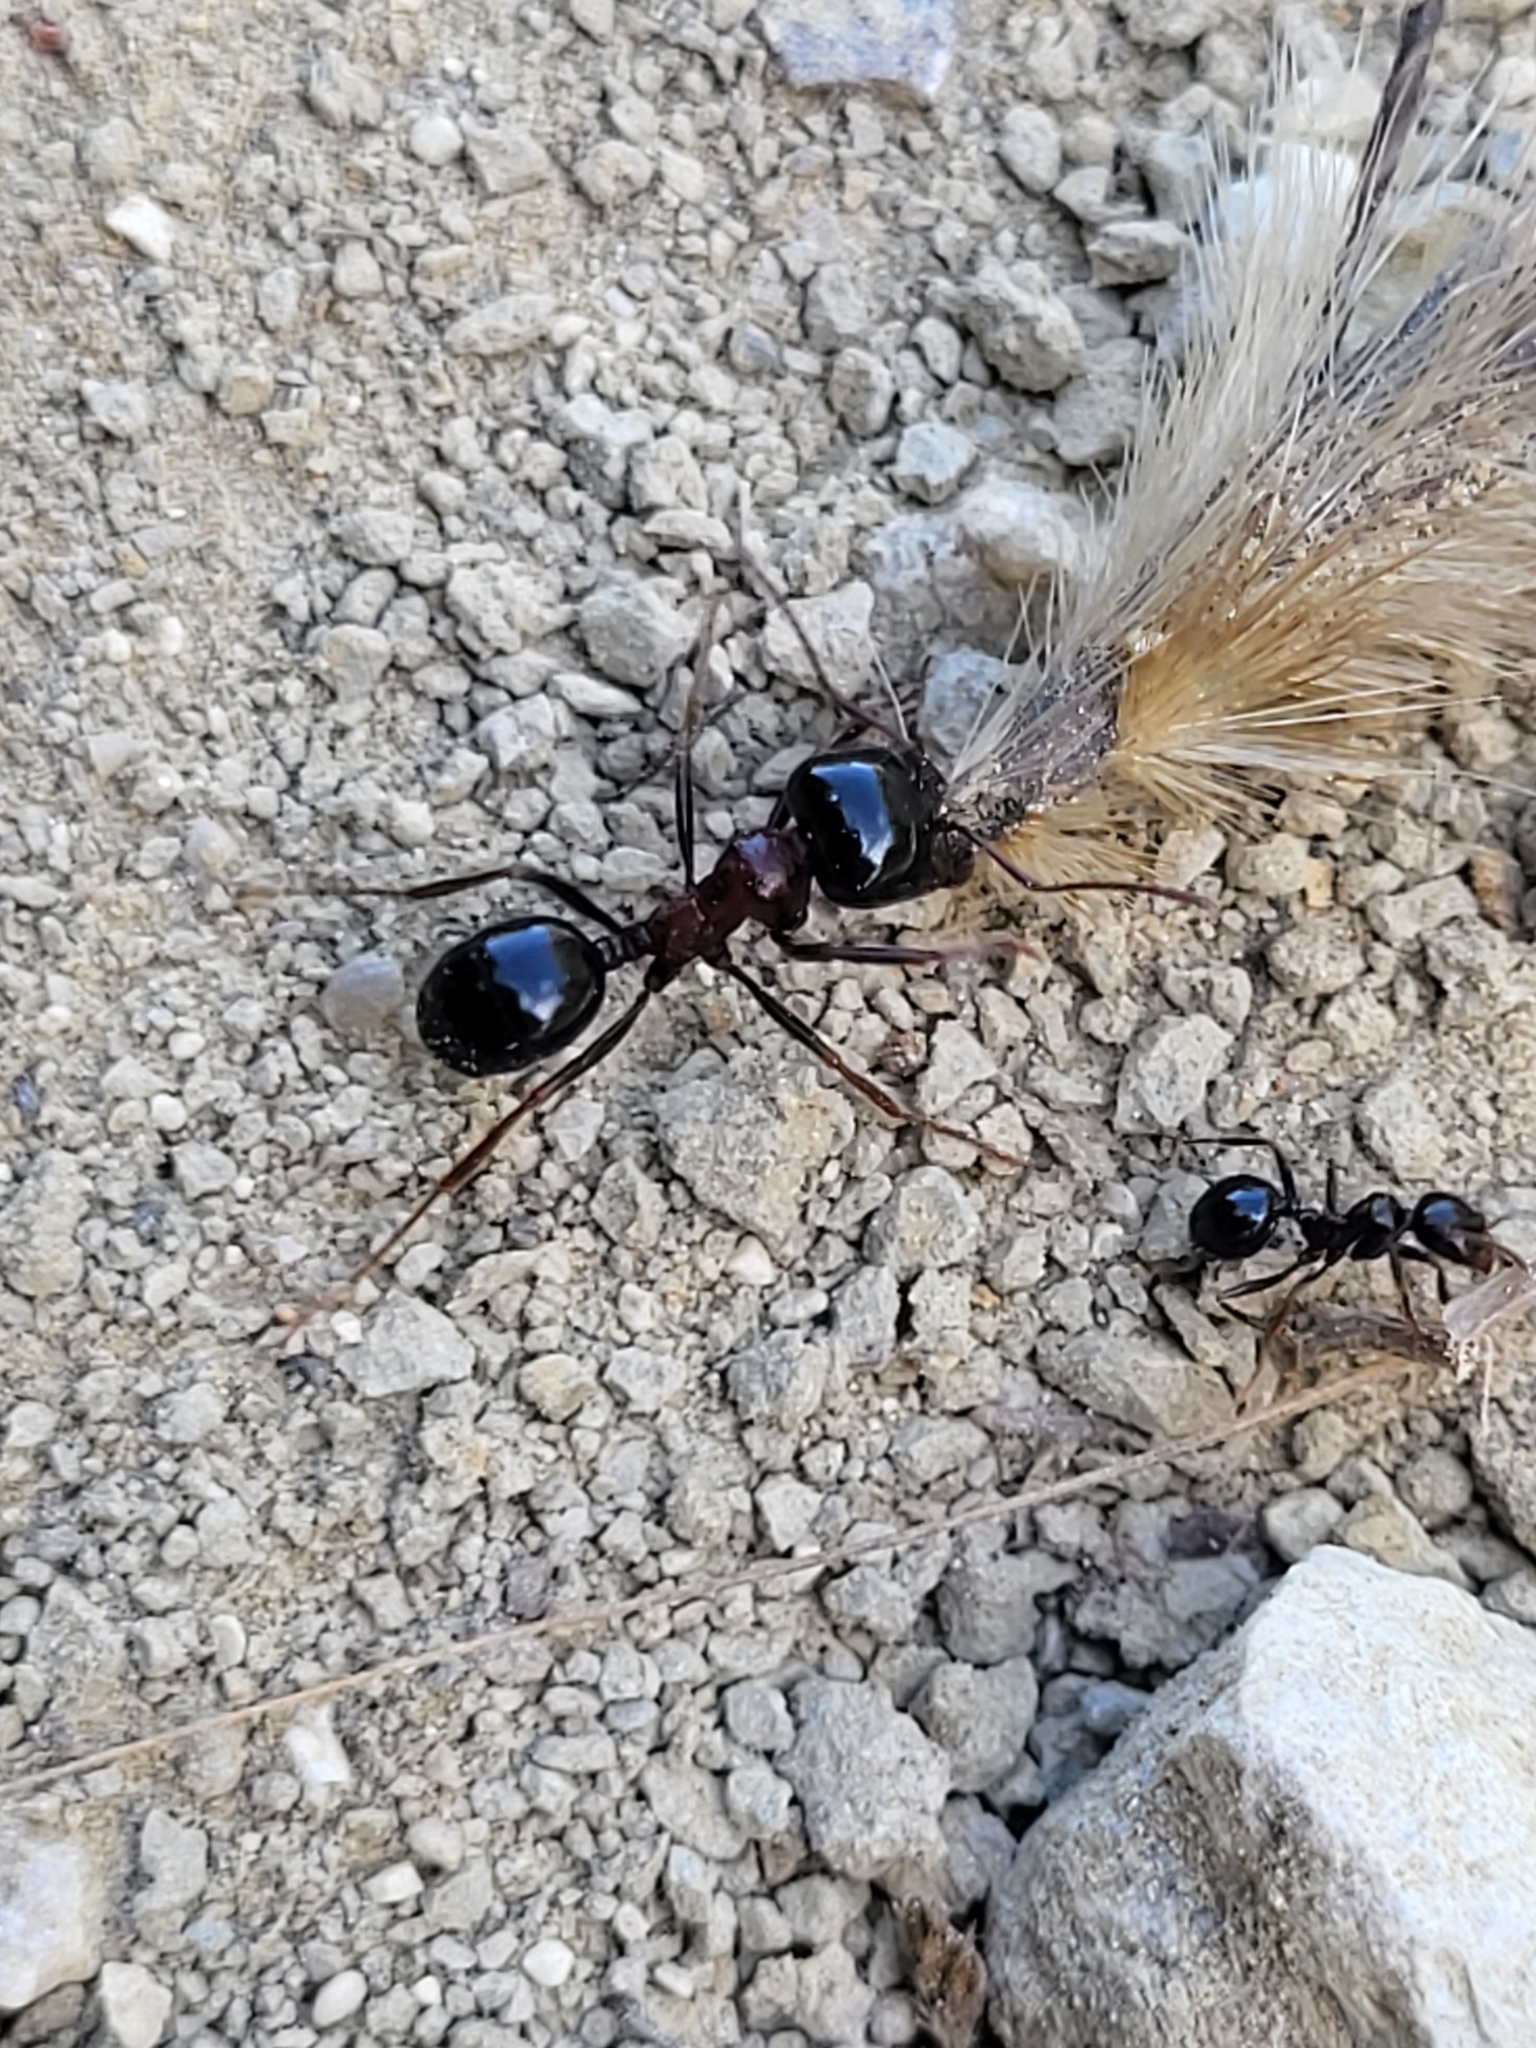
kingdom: Animalia
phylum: Arthropoda
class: Insecta
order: Hymenoptera
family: Formicidae
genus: Messor
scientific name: Messor wasmanni
